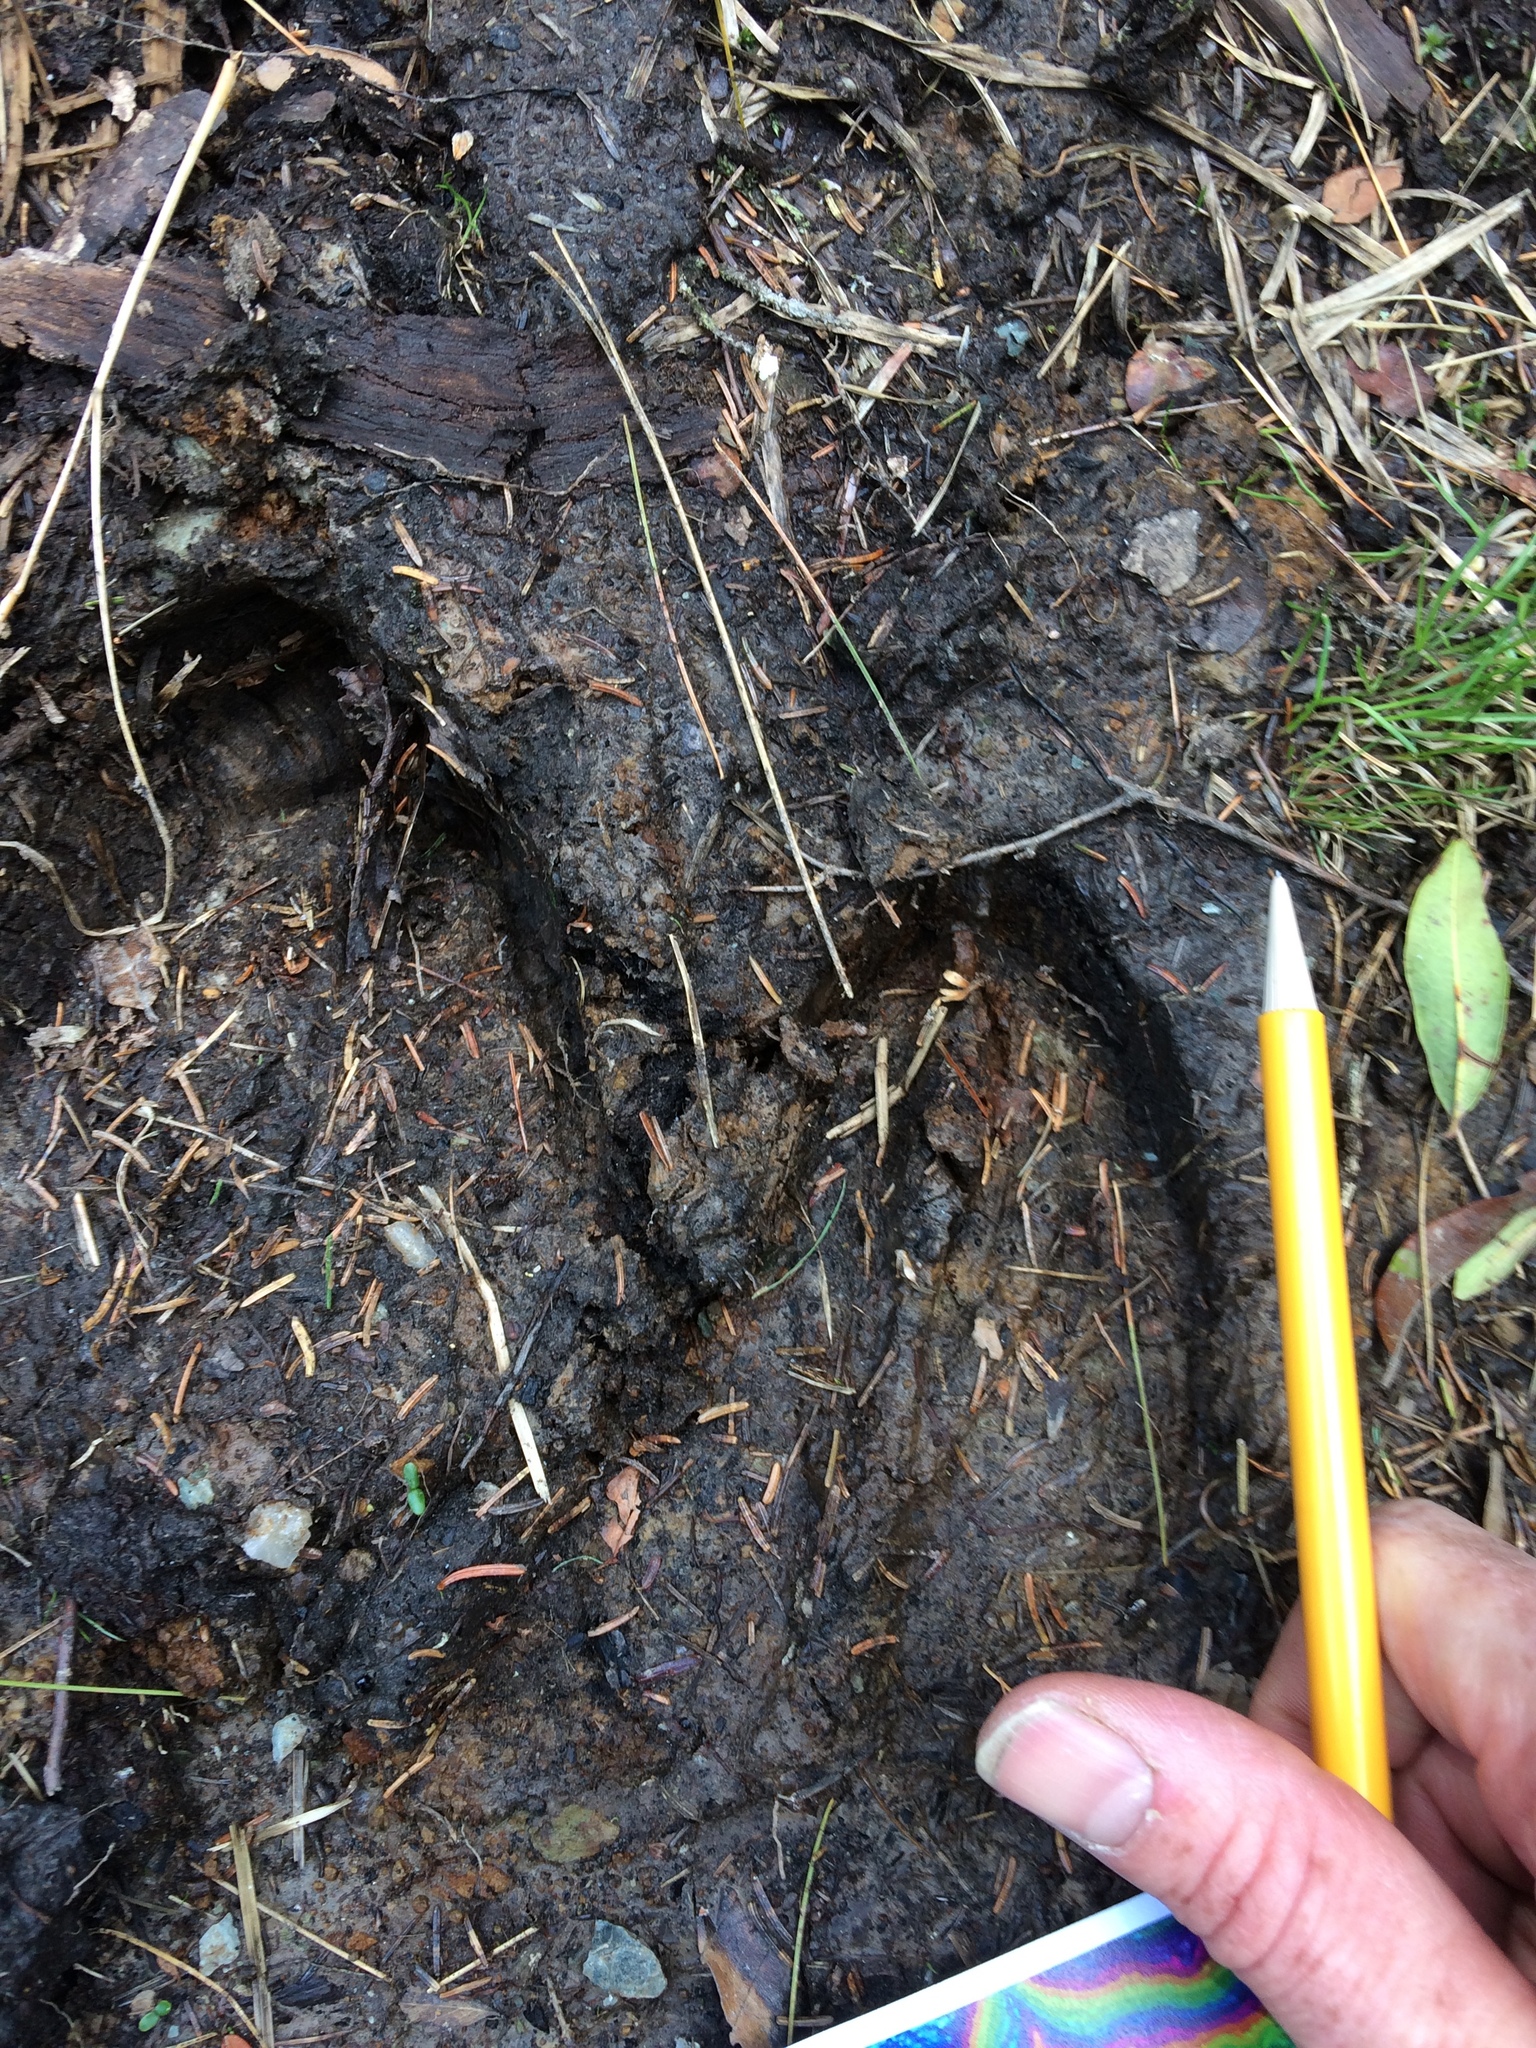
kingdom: Animalia
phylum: Chordata
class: Mammalia
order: Artiodactyla
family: Cervidae
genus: Alces
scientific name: Alces alces
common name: Moose
